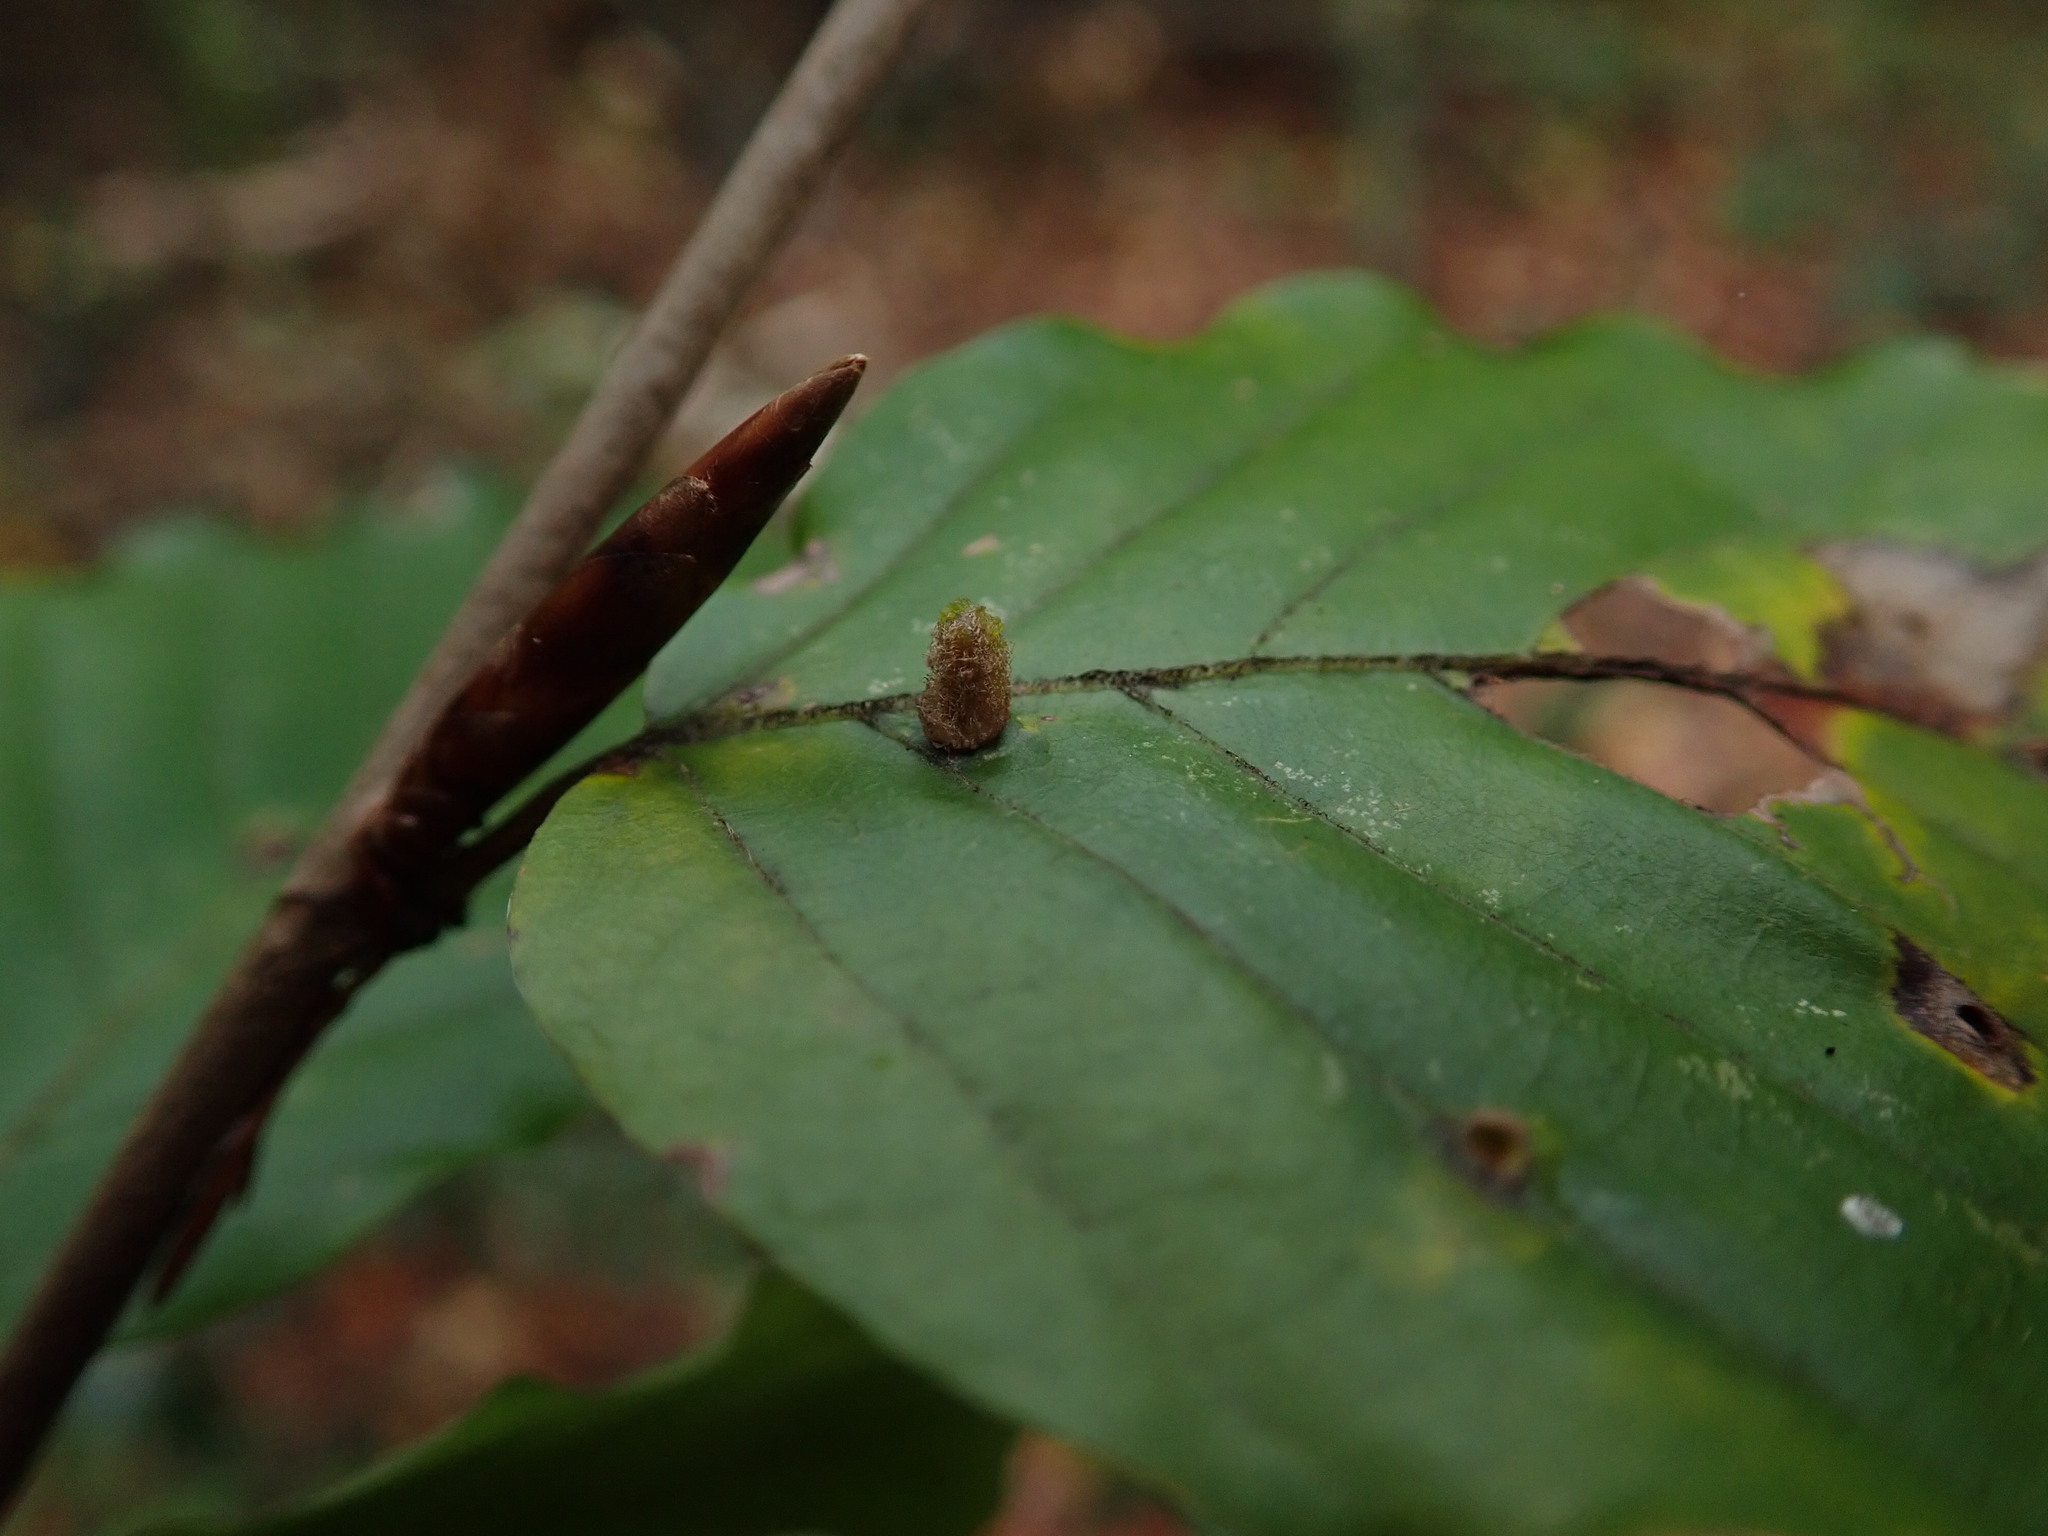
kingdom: Animalia
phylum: Arthropoda
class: Insecta
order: Diptera
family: Cecidomyiidae
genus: Hartigiola
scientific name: Hartigiola annulipes
